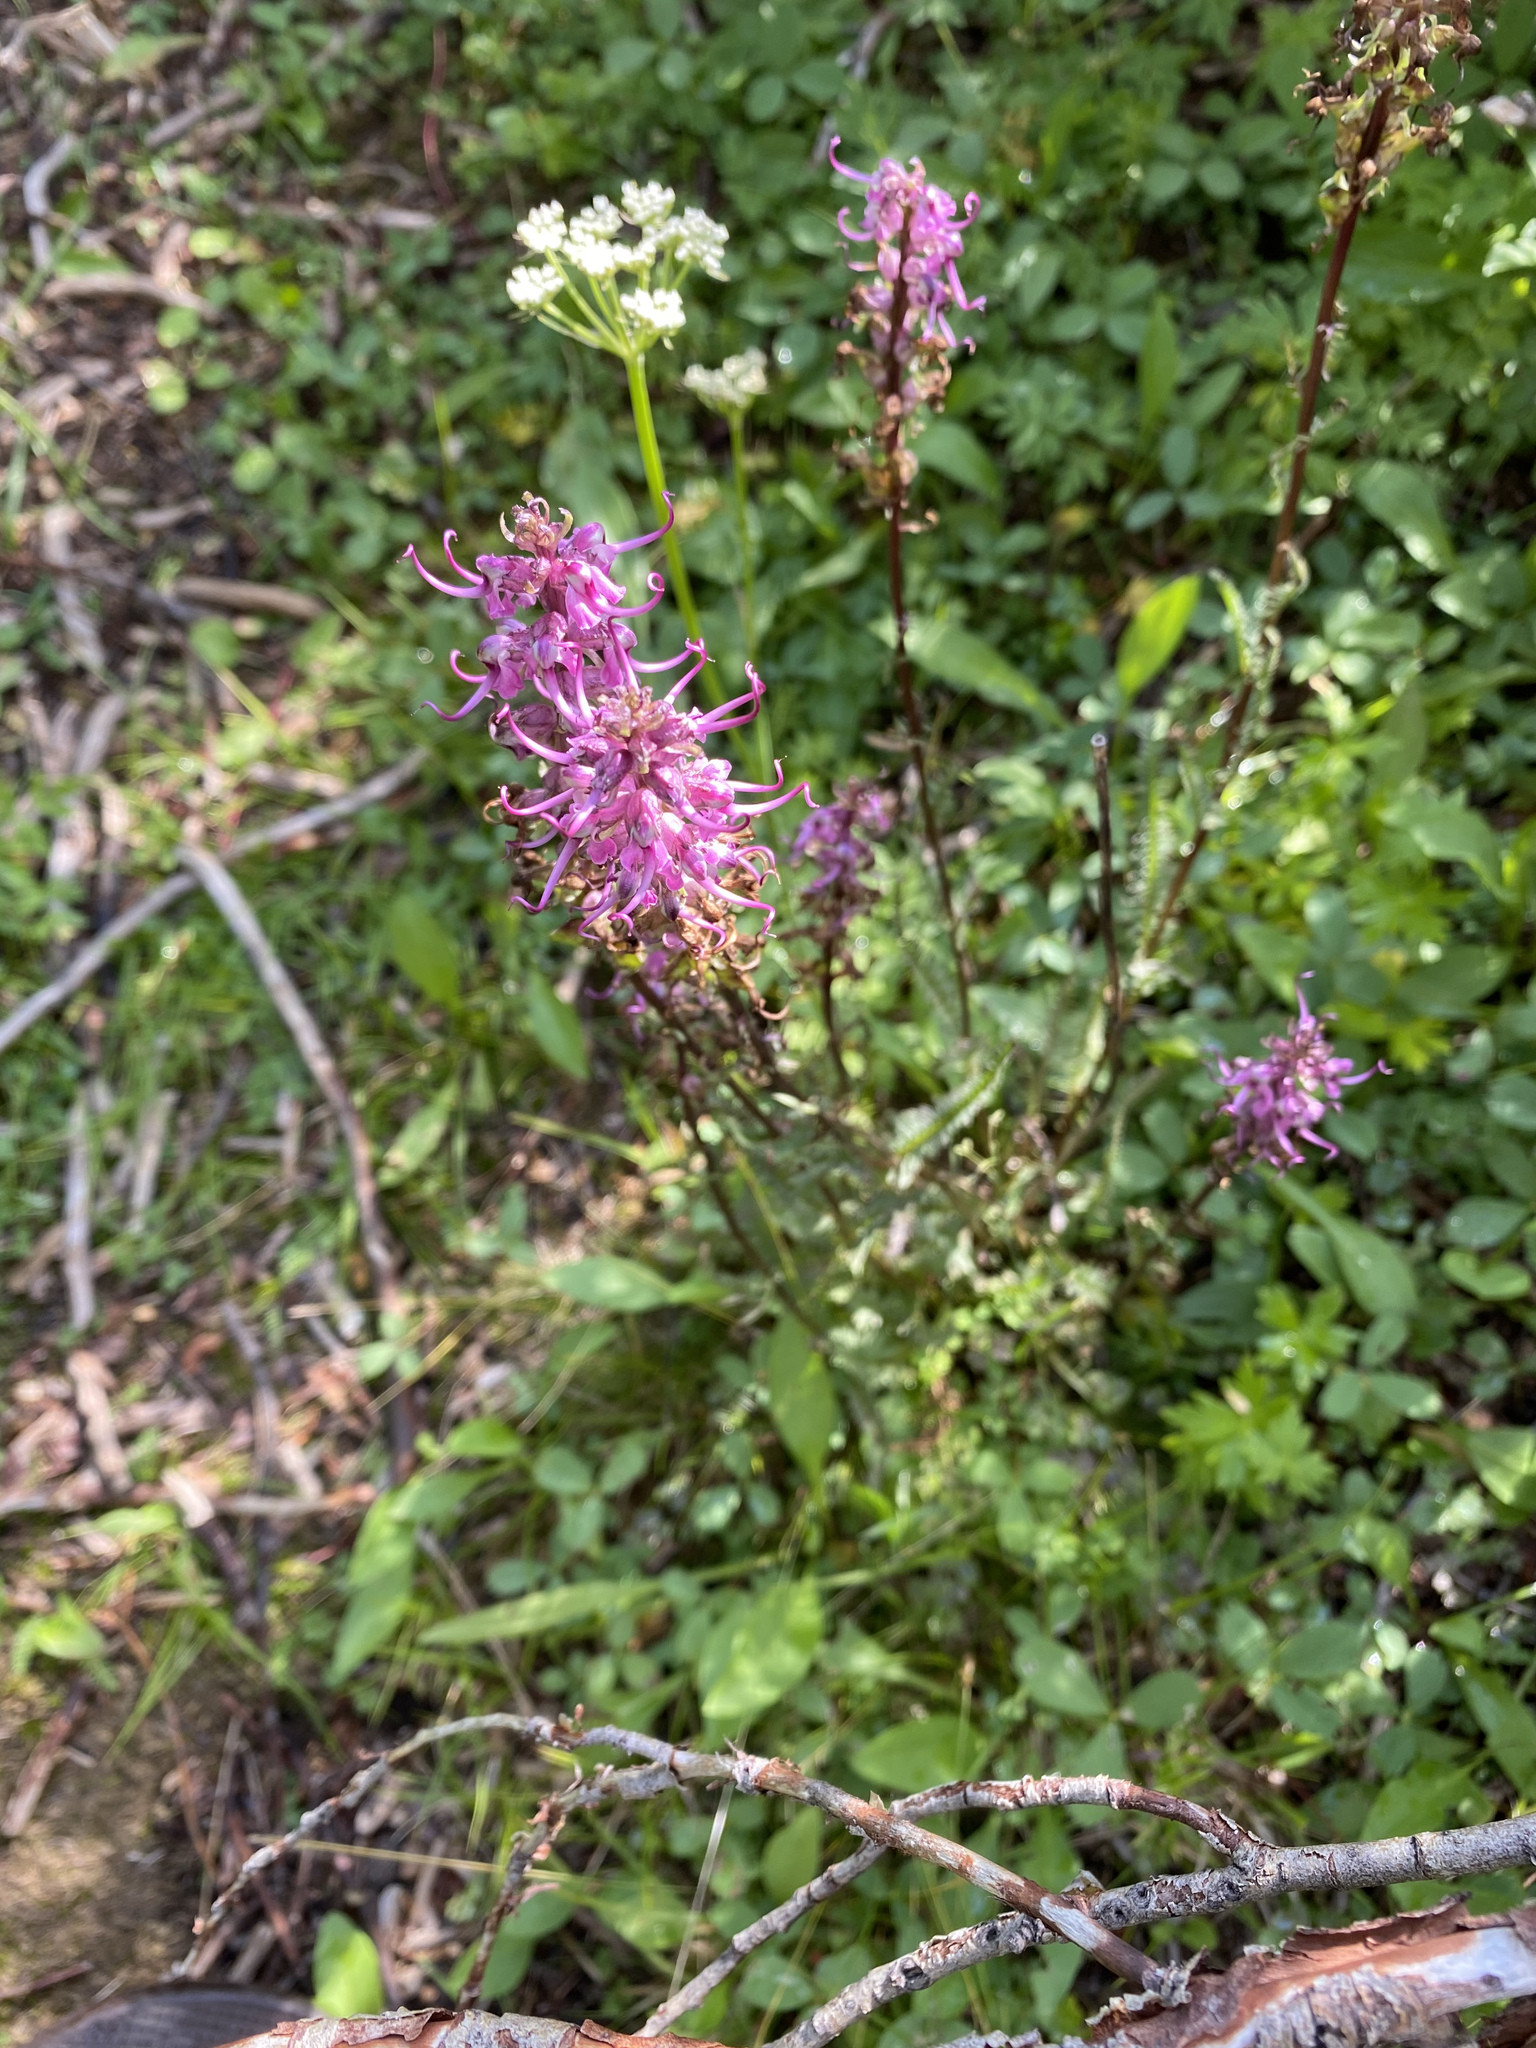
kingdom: Plantae
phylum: Tracheophyta
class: Magnoliopsida
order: Lamiales
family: Orobanchaceae
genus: Pedicularis
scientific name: Pedicularis groenlandica
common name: Elephant's-head
